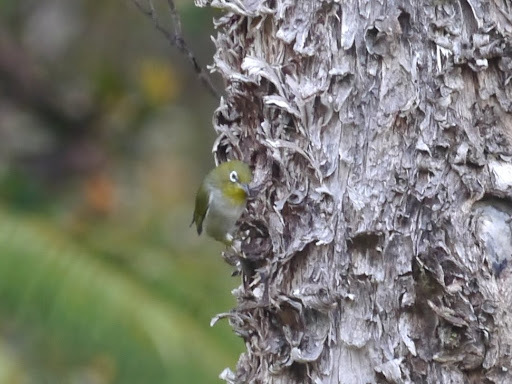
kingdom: Animalia
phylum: Chordata
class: Aves
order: Passeriformes
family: Zosteropidae
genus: Zosterops
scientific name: Zosterops japonicus
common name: Japanese white-eye
